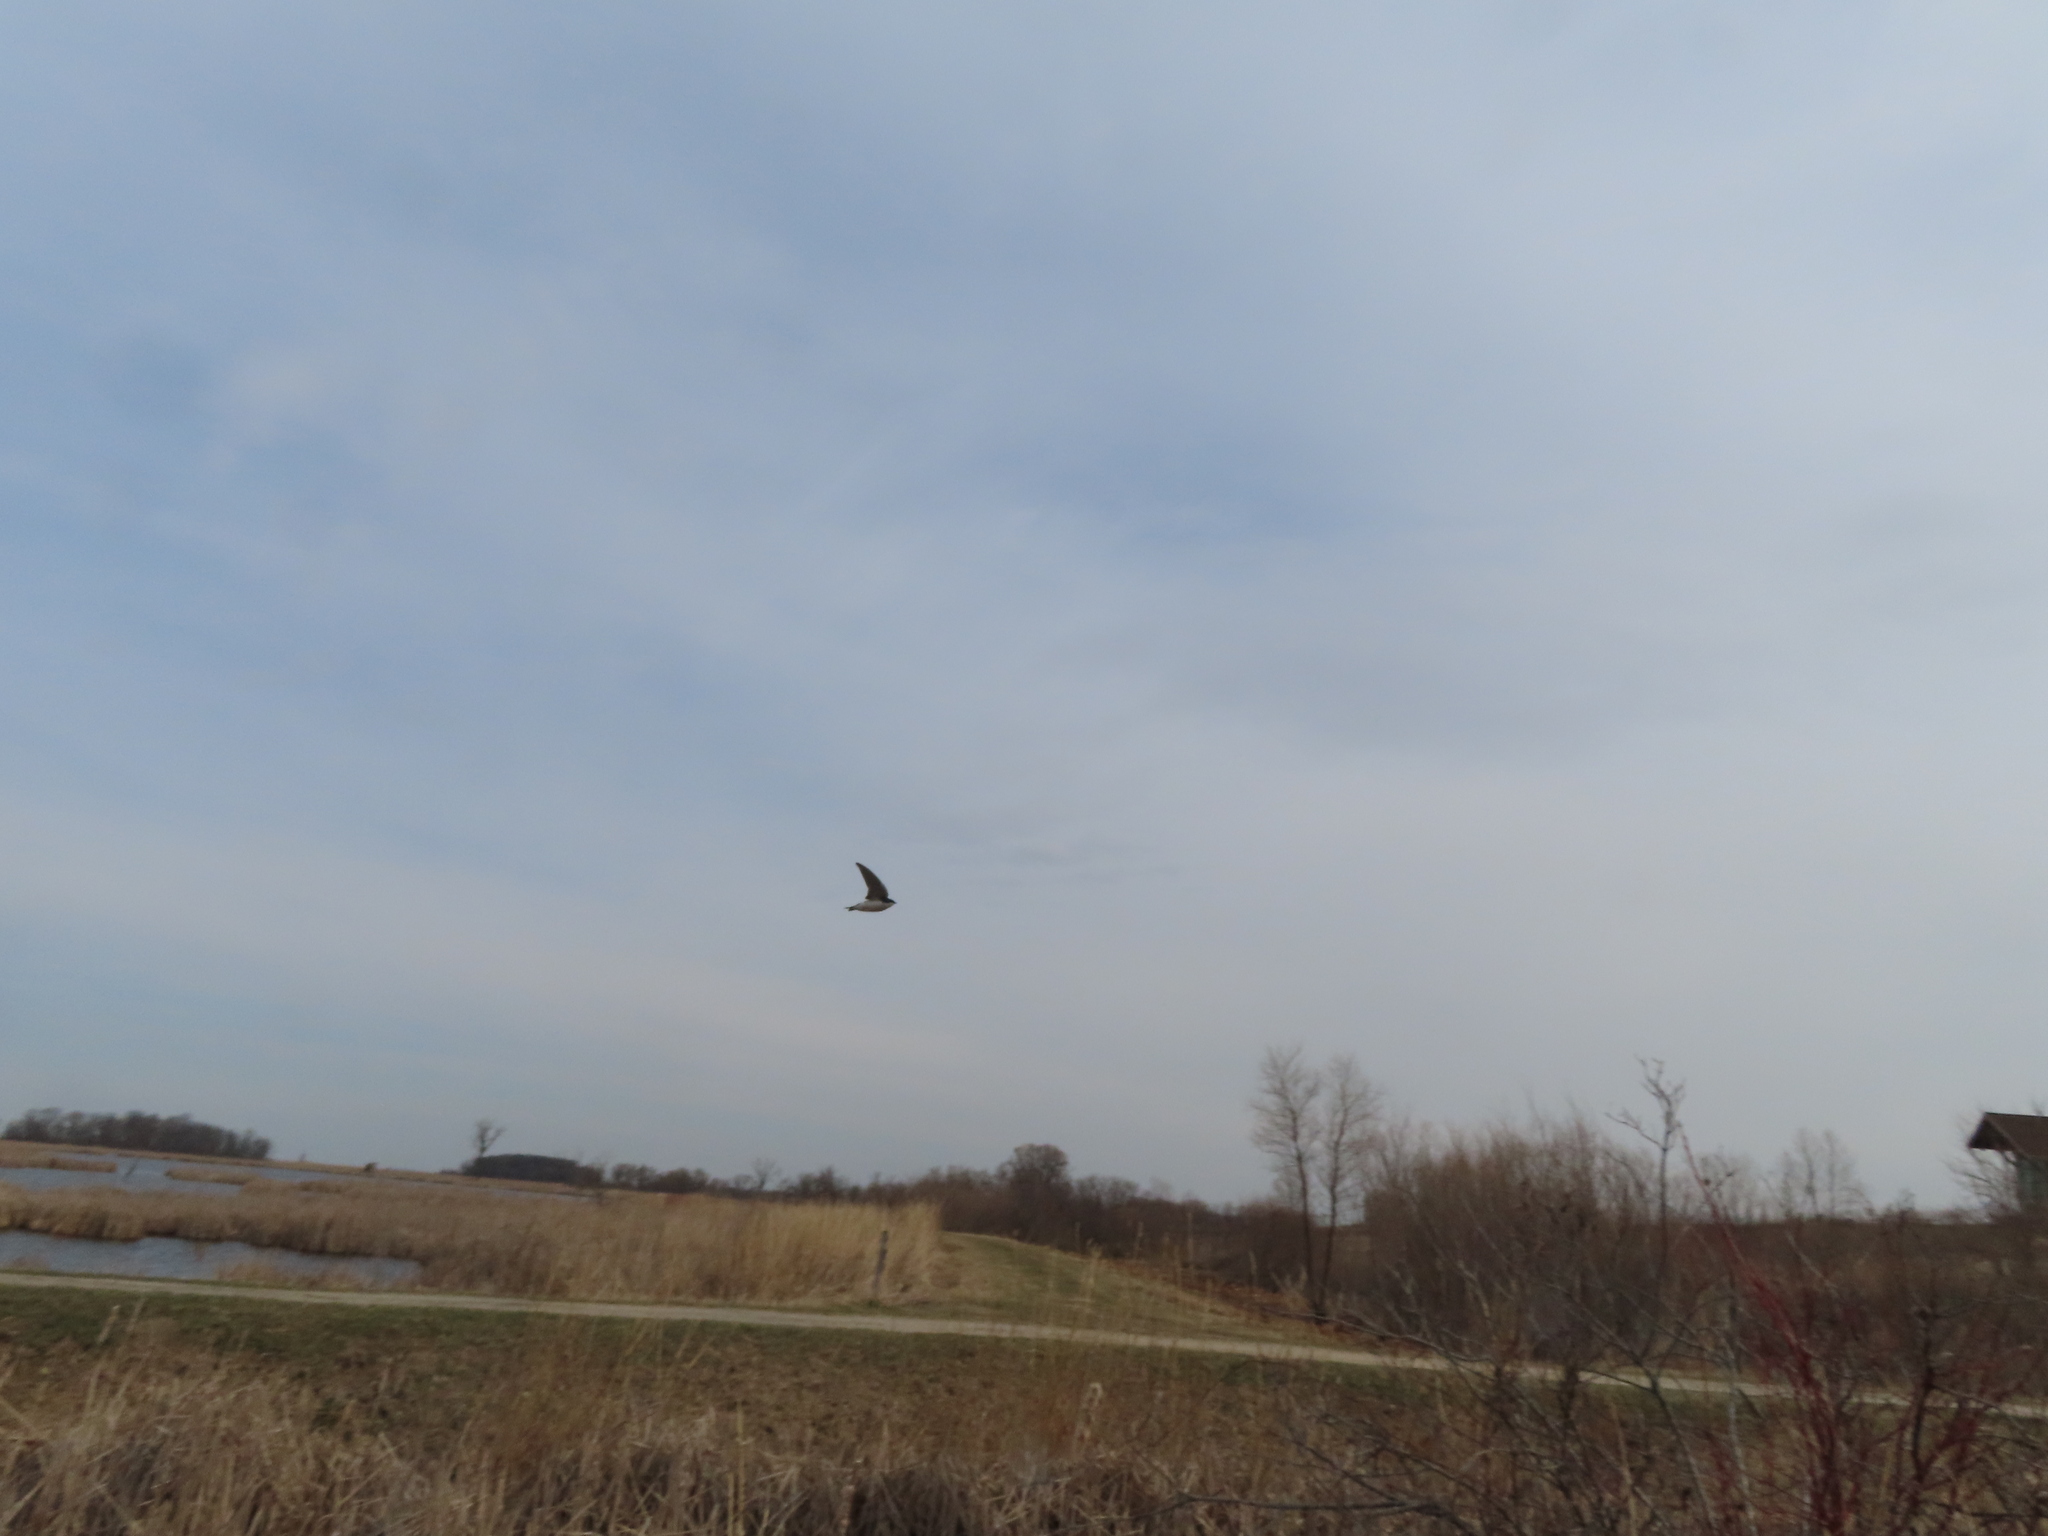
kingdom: Animalia
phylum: Chordata
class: Aves
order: Passeriformes
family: Hirundinidae
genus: Tachycineta
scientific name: Tachycineta bicolor
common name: Tree swallow
